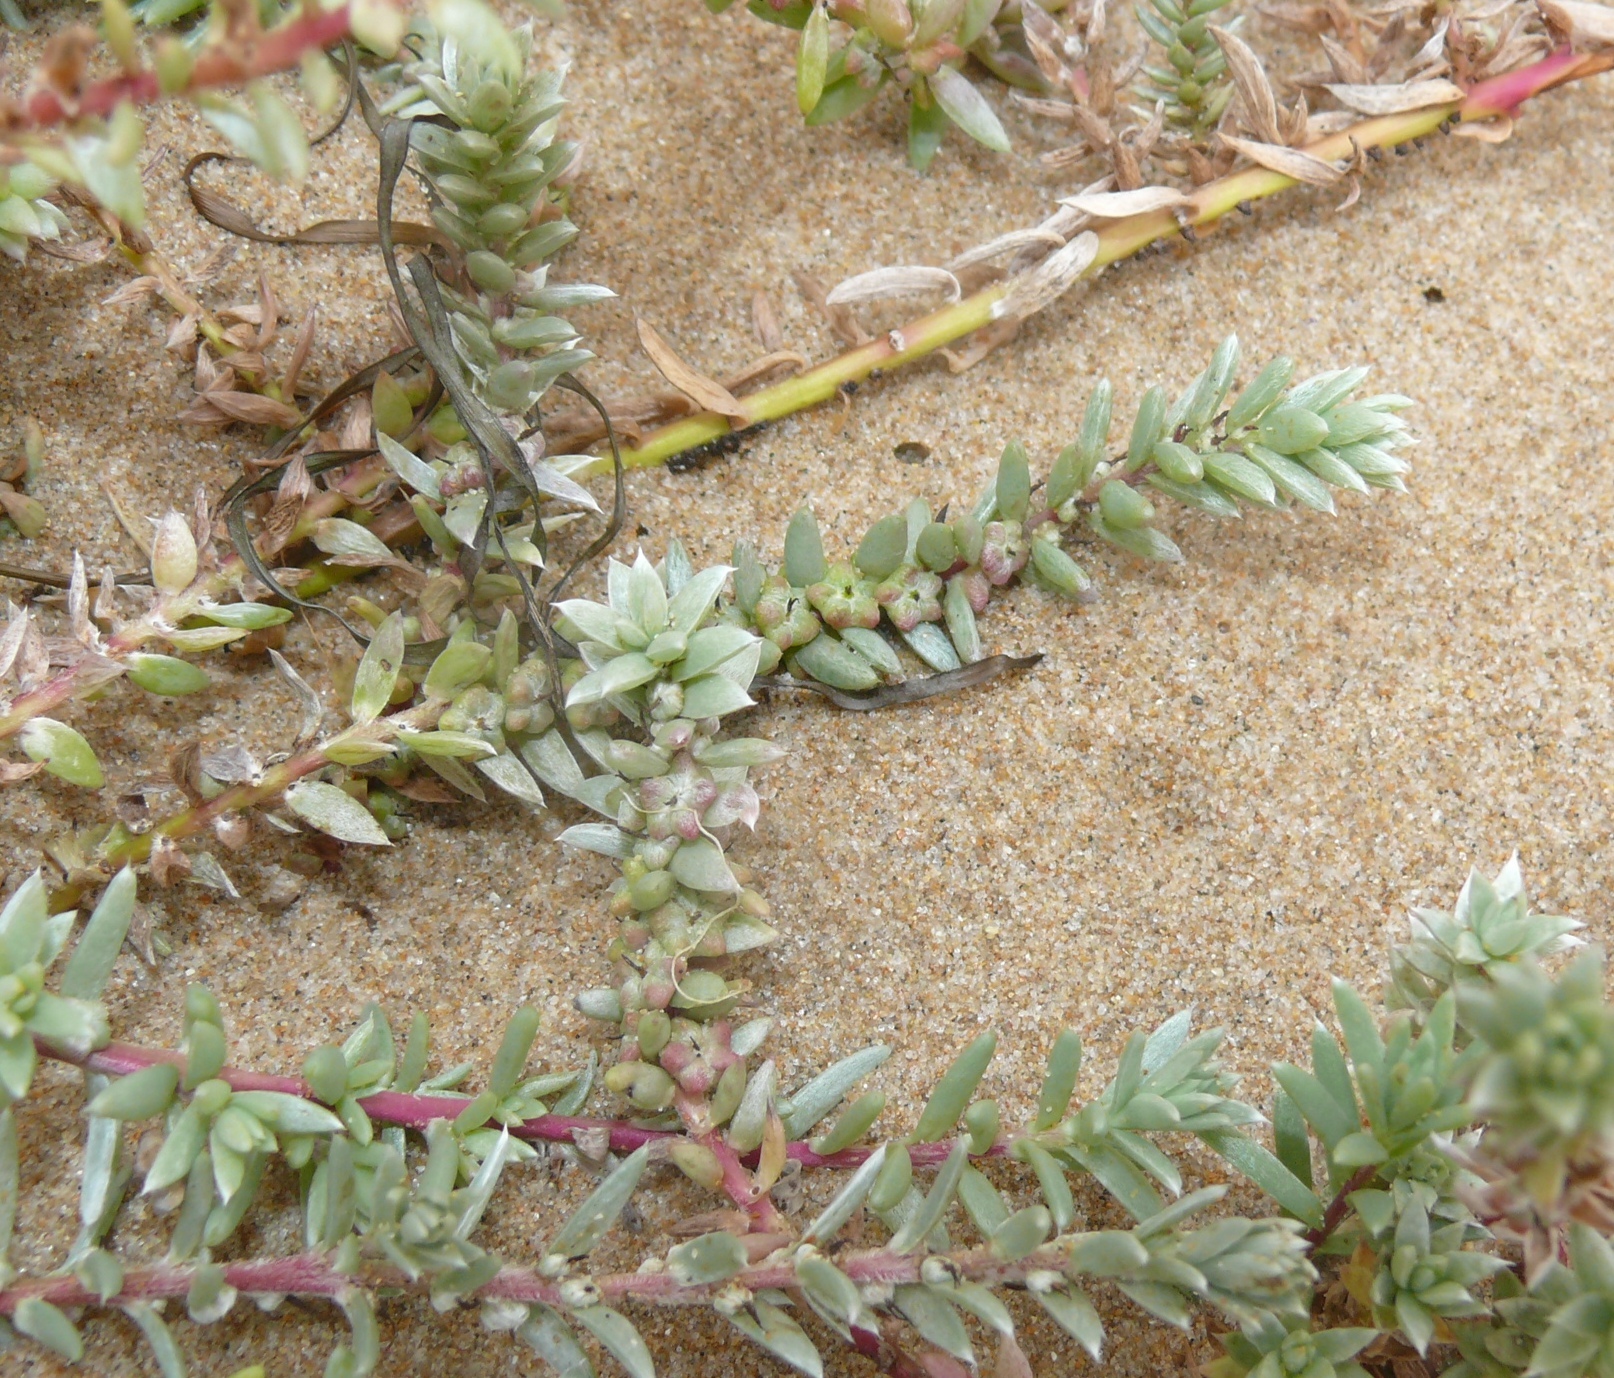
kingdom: Plantae
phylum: Tracheophyta
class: Magnoliopsida
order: Caryophyllales
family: Amaranthaceae
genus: Chenolea
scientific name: Chenolea diffusa
